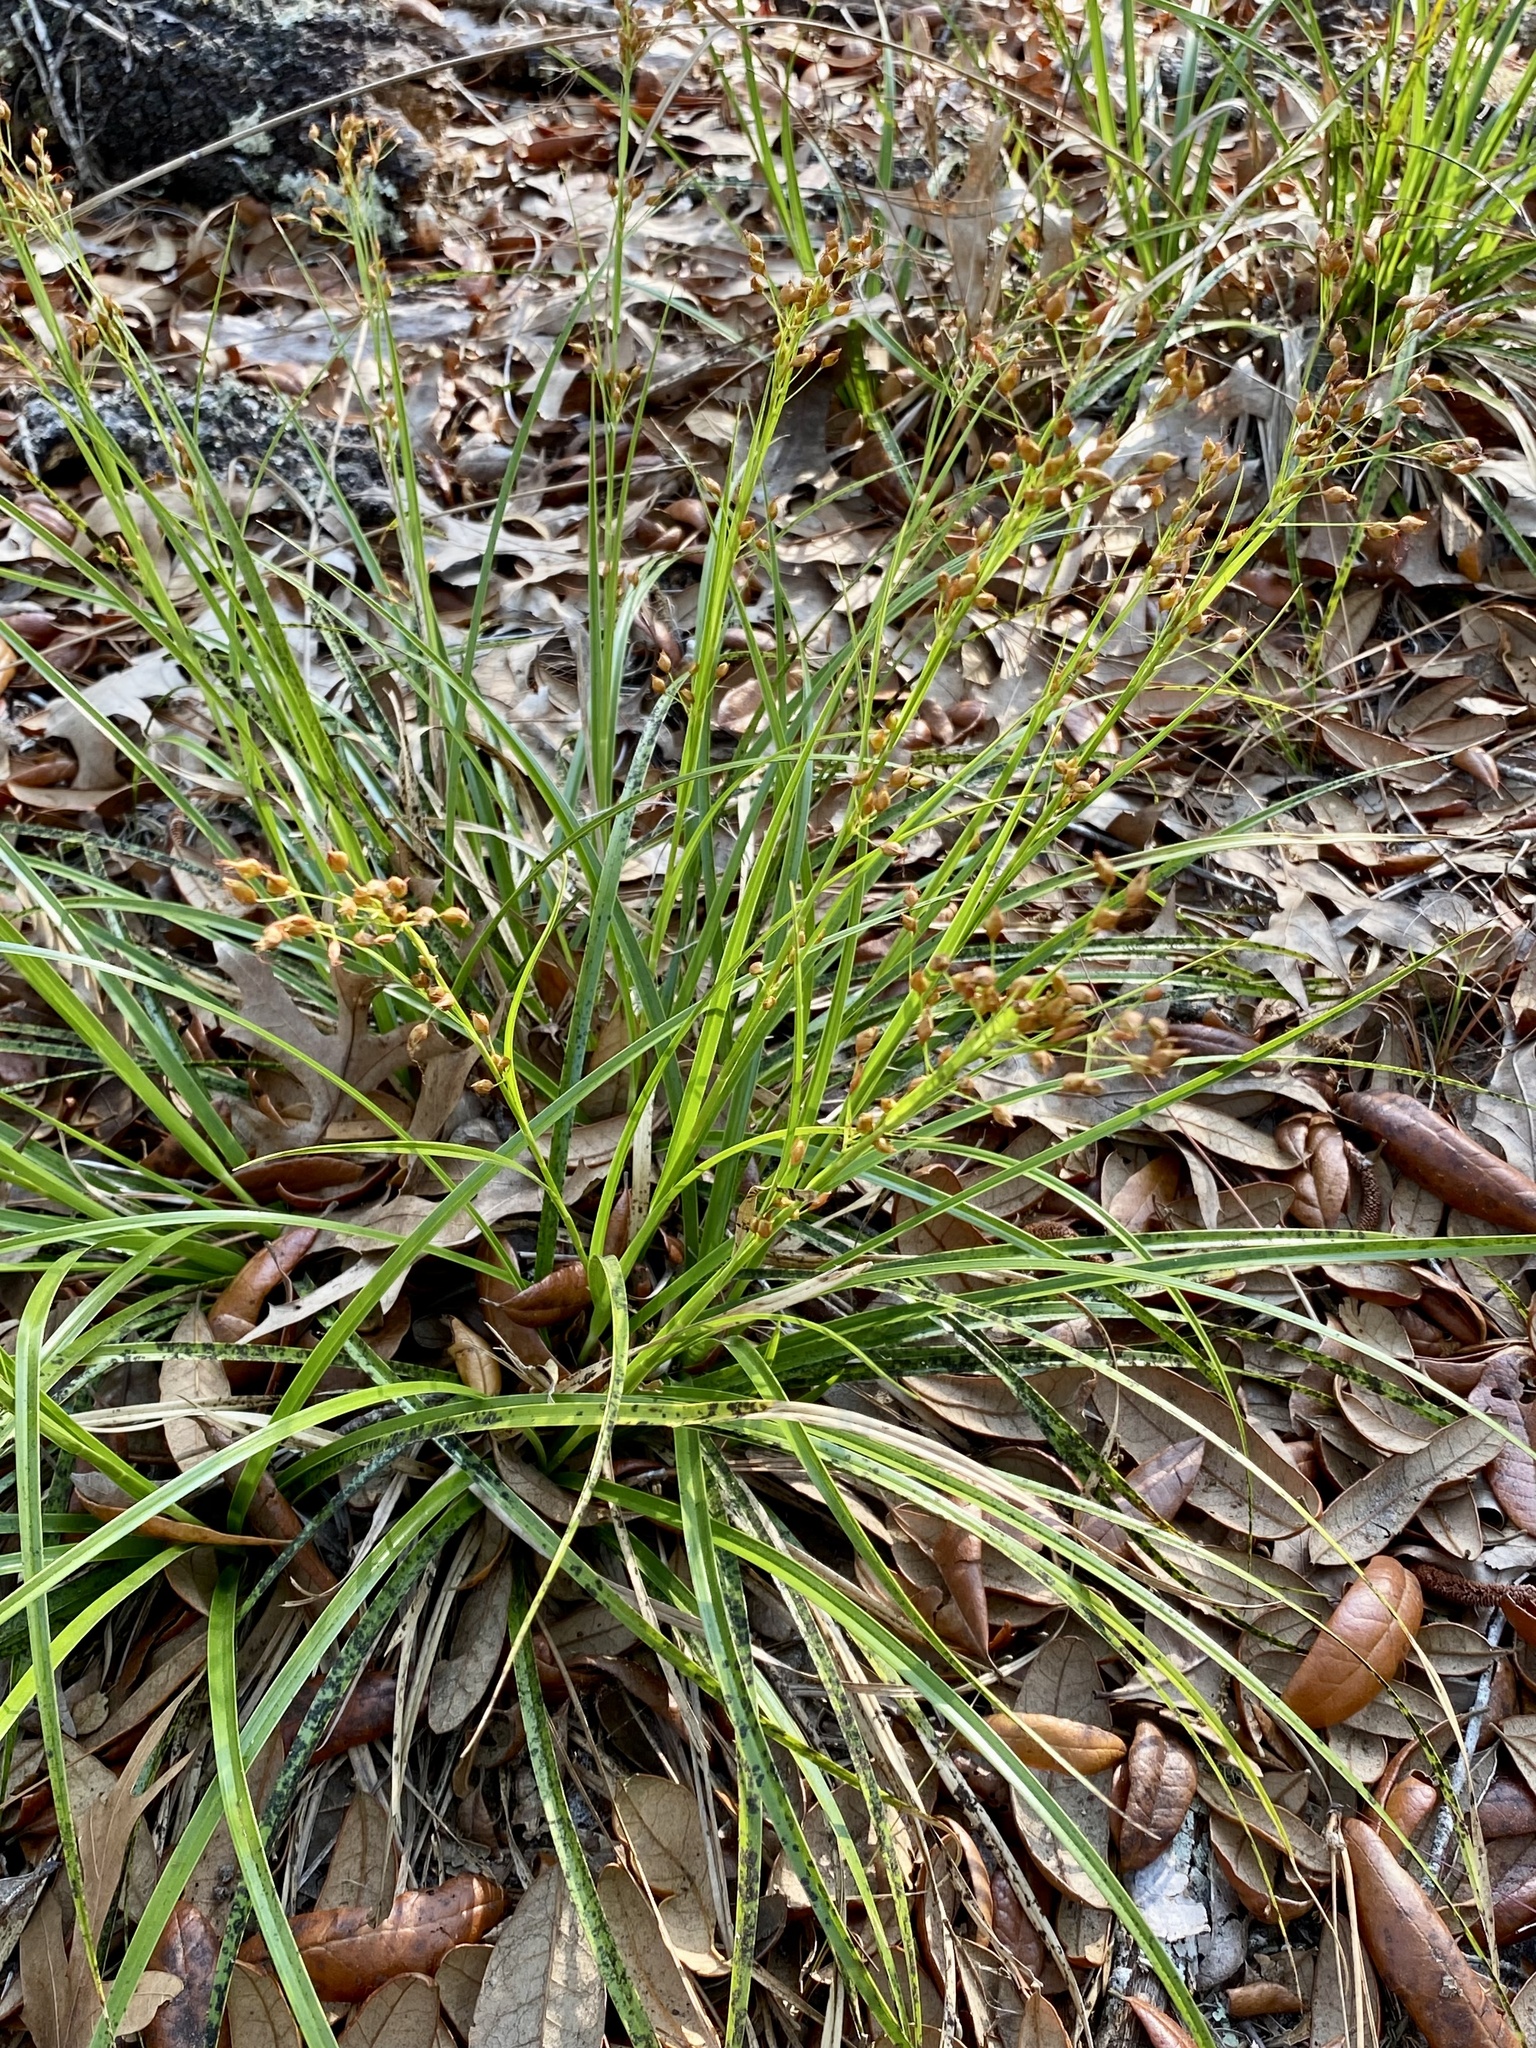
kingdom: Plantae
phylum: Tracheophyta
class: Liliopsida
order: Poales
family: Cyperaceae
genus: Rhynchospora
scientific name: Rhynchospora megalocarpa
